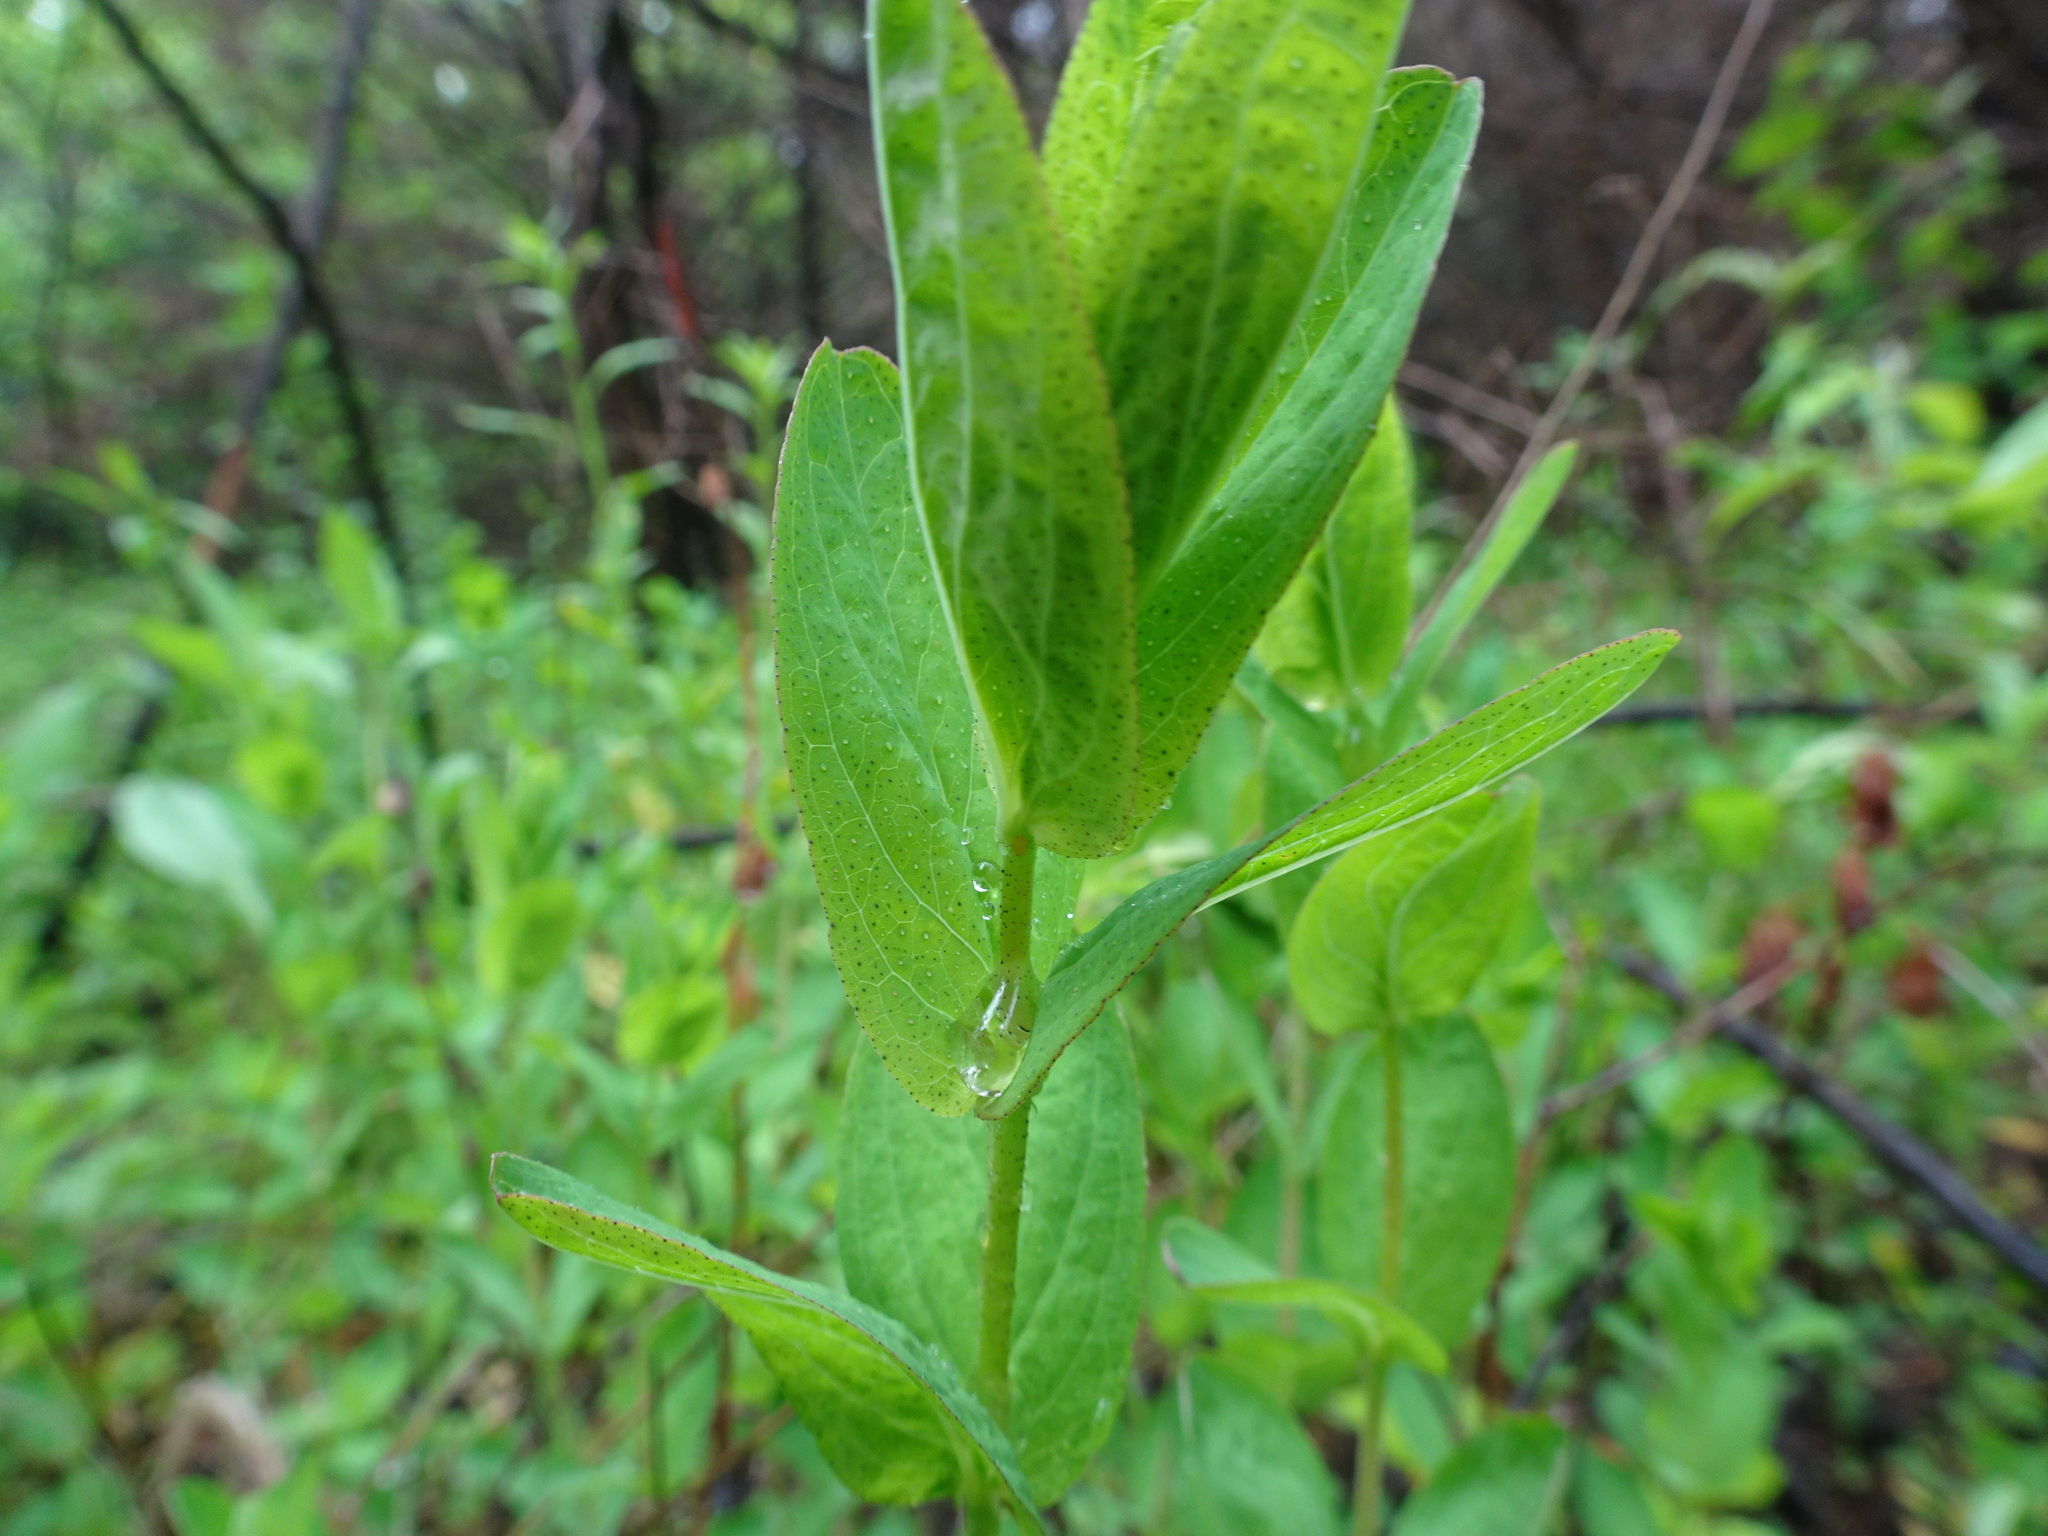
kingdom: Plantae
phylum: Tracheophyta
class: Magnoliopsida
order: Malpighiales
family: Hypericaceae
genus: Hypericum
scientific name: Hypericum punctatum
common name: Spotted st. john's-wort
